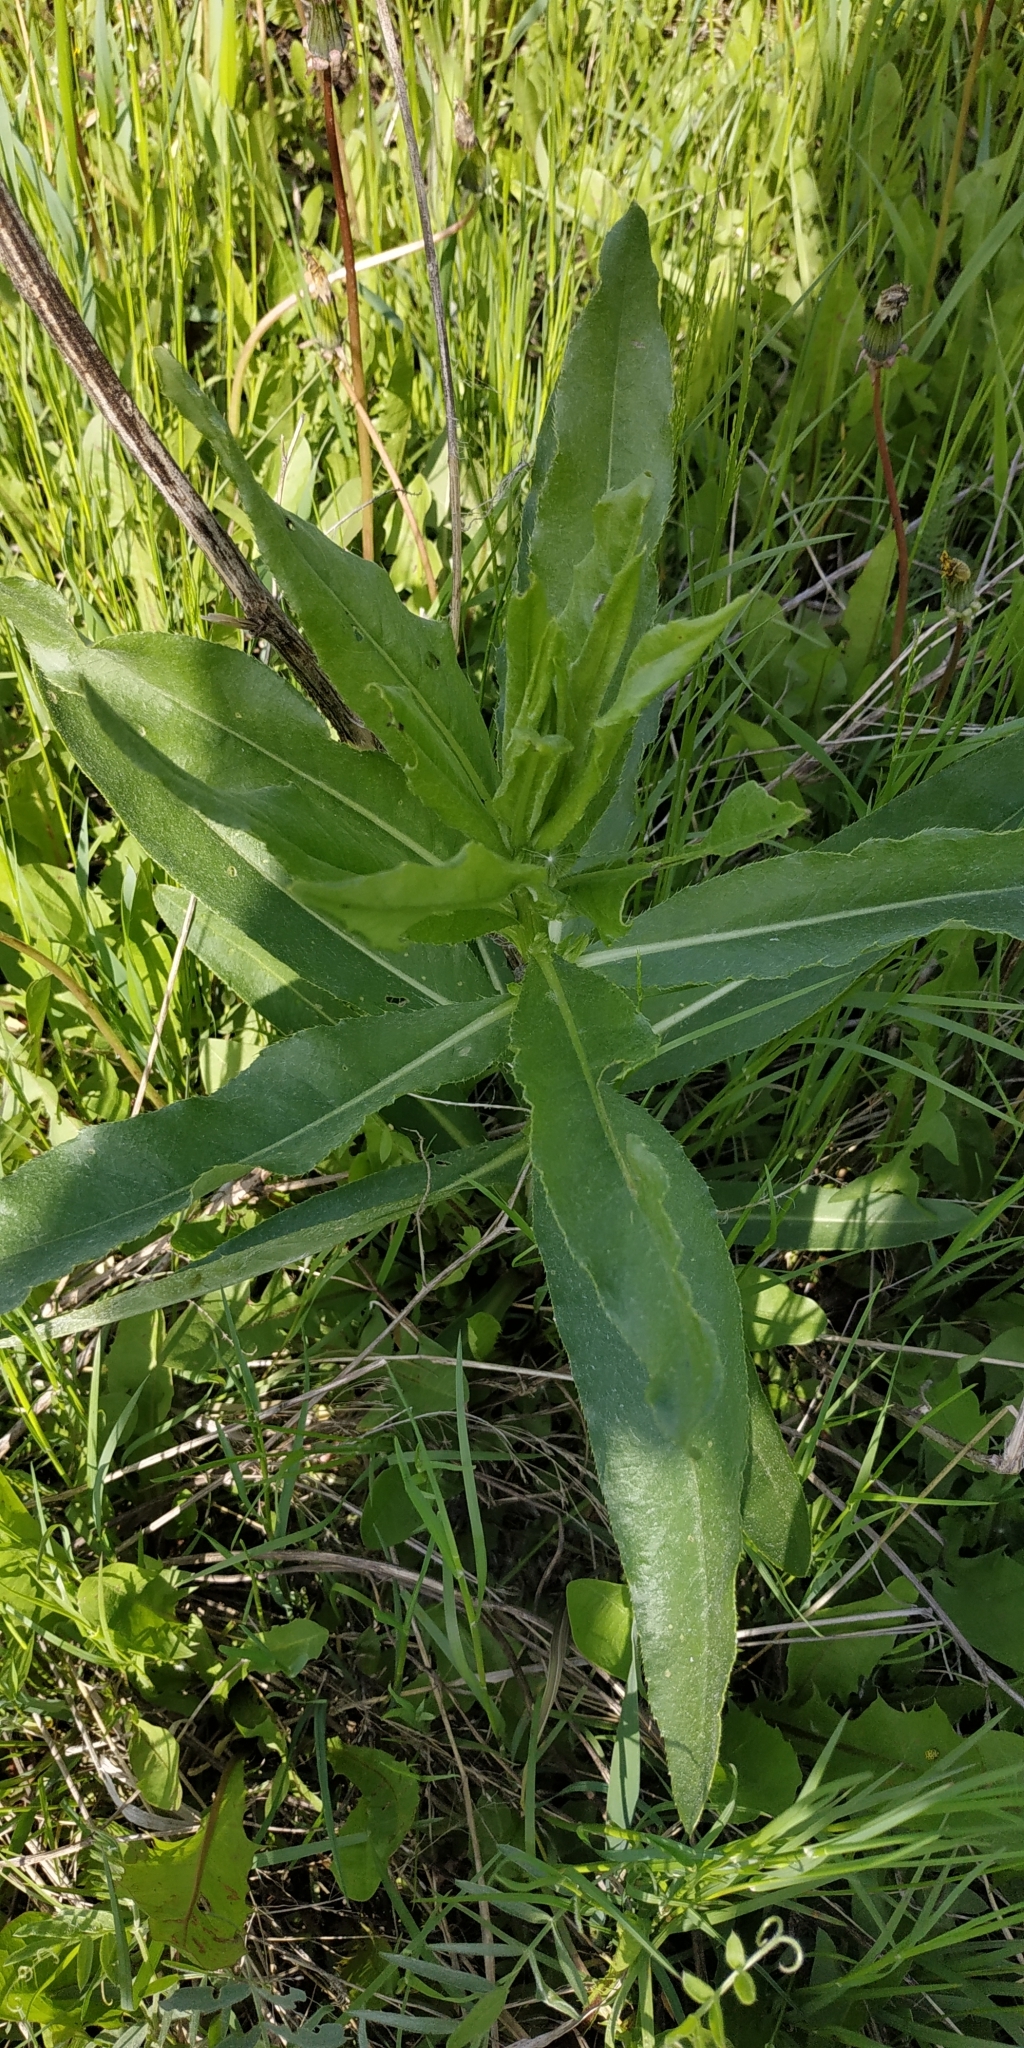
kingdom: Plantae
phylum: Tracheophyta
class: Magnoliopsida
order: Asterales
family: Asteraceae
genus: Cirsium
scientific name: Cirsium arvense
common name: Creeping thistle
